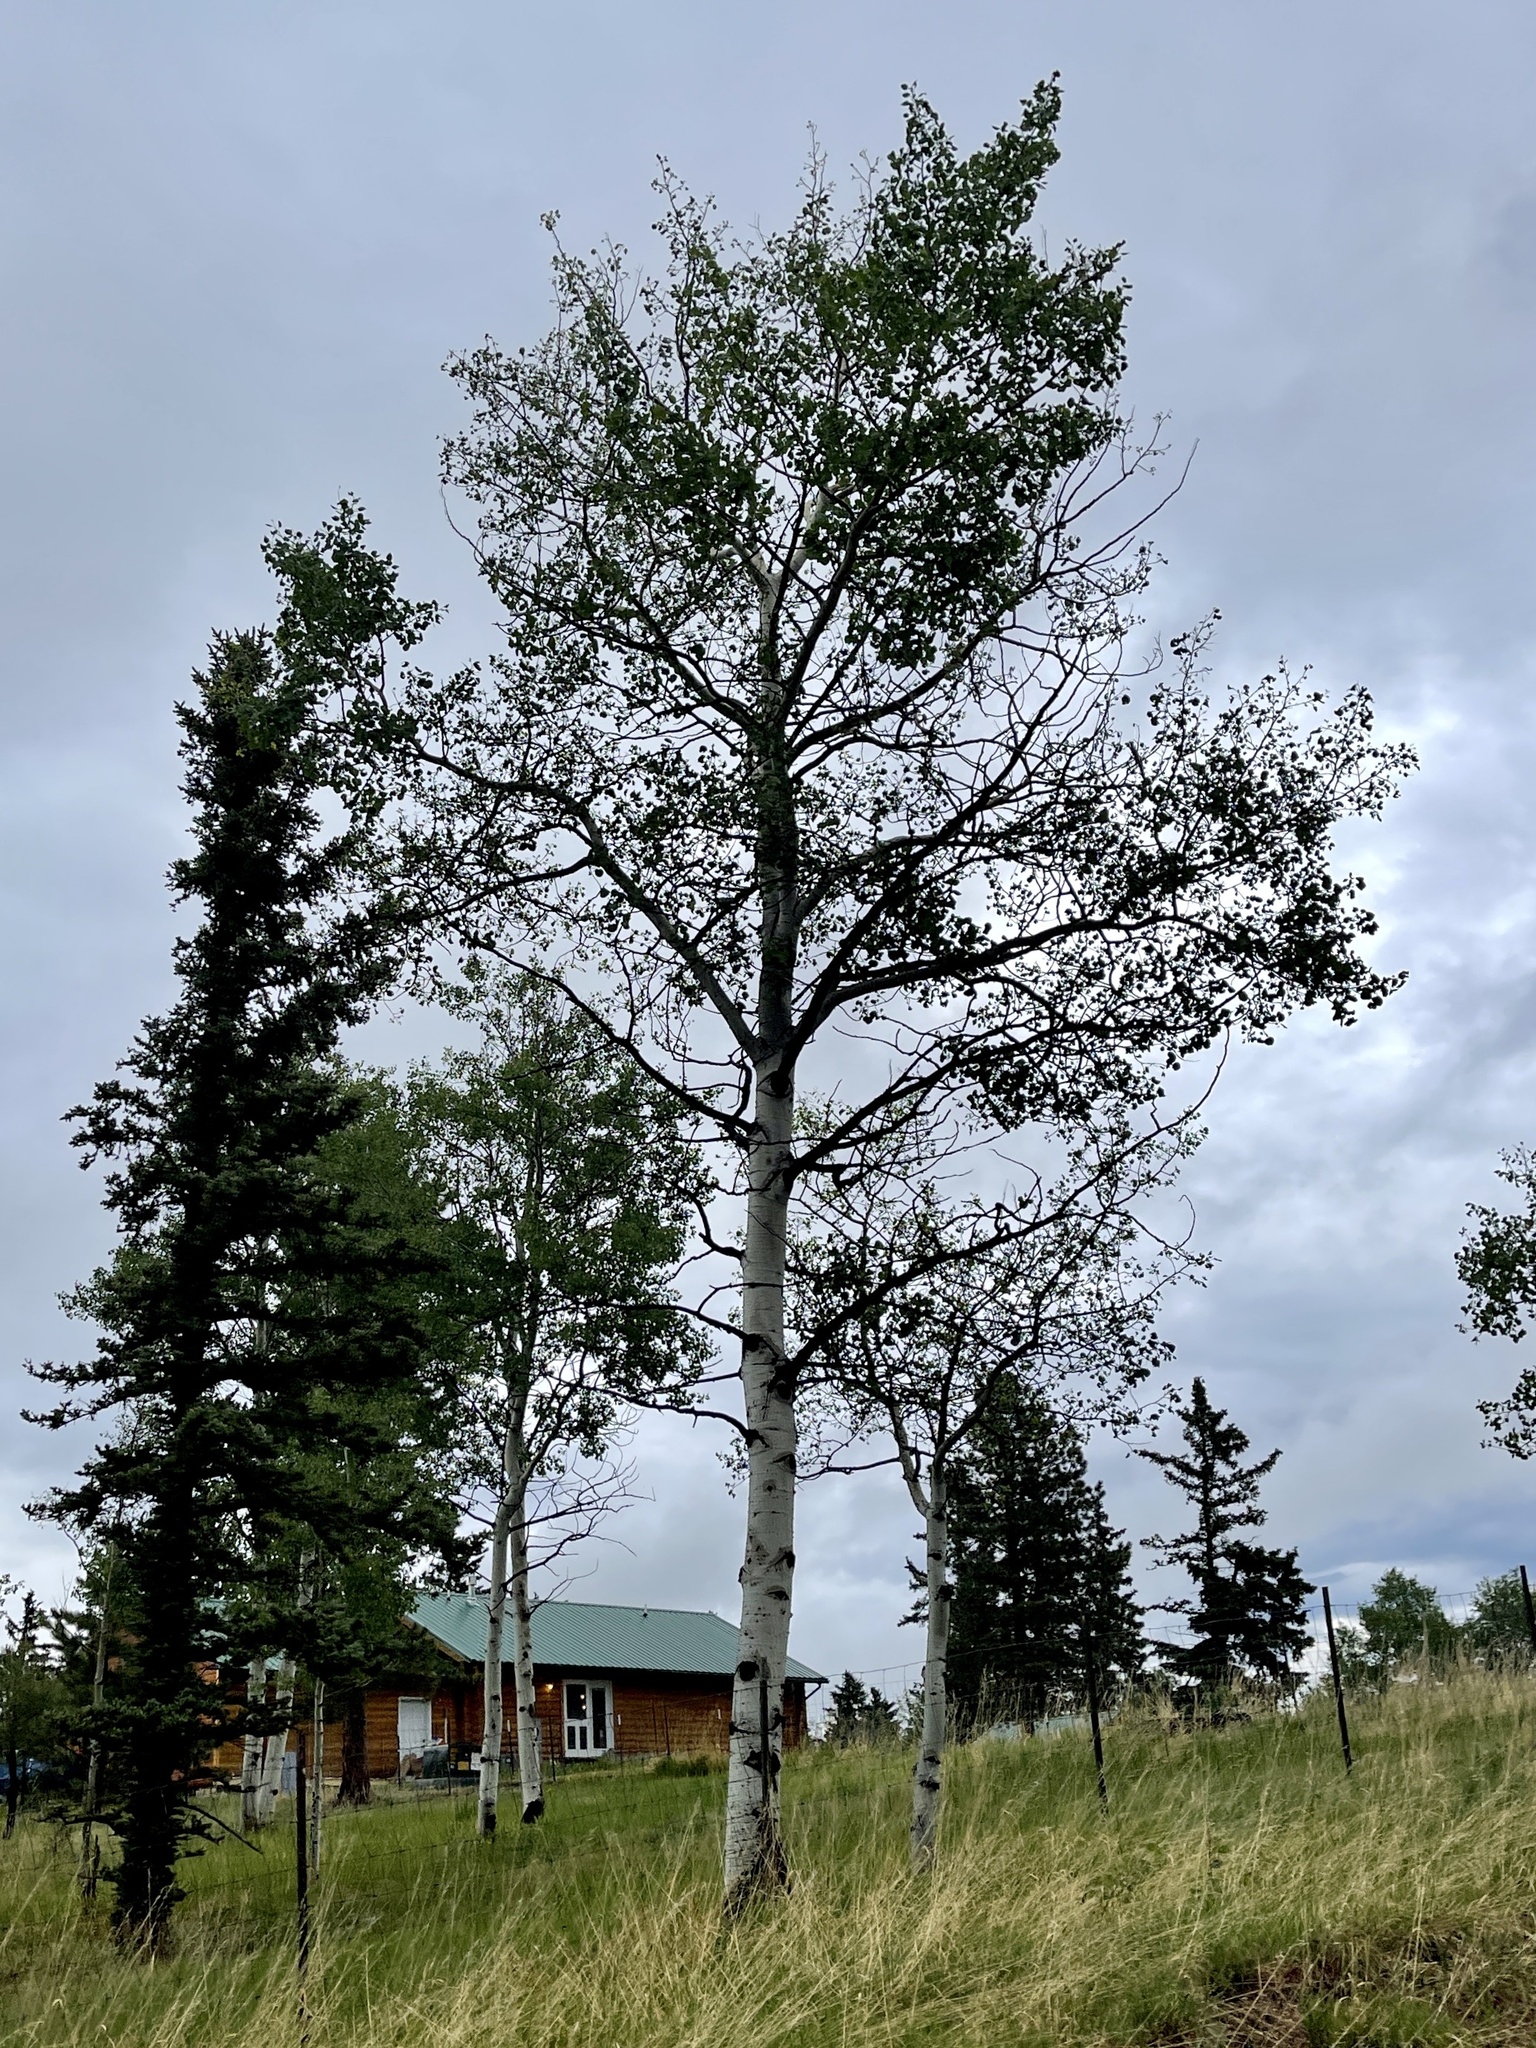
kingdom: Plantae
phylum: Tracheophyta
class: Magnoliopsida
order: Malpighiales
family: Salicaceae
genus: Populus
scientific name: Populus tremuloides
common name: Quaking aspen
